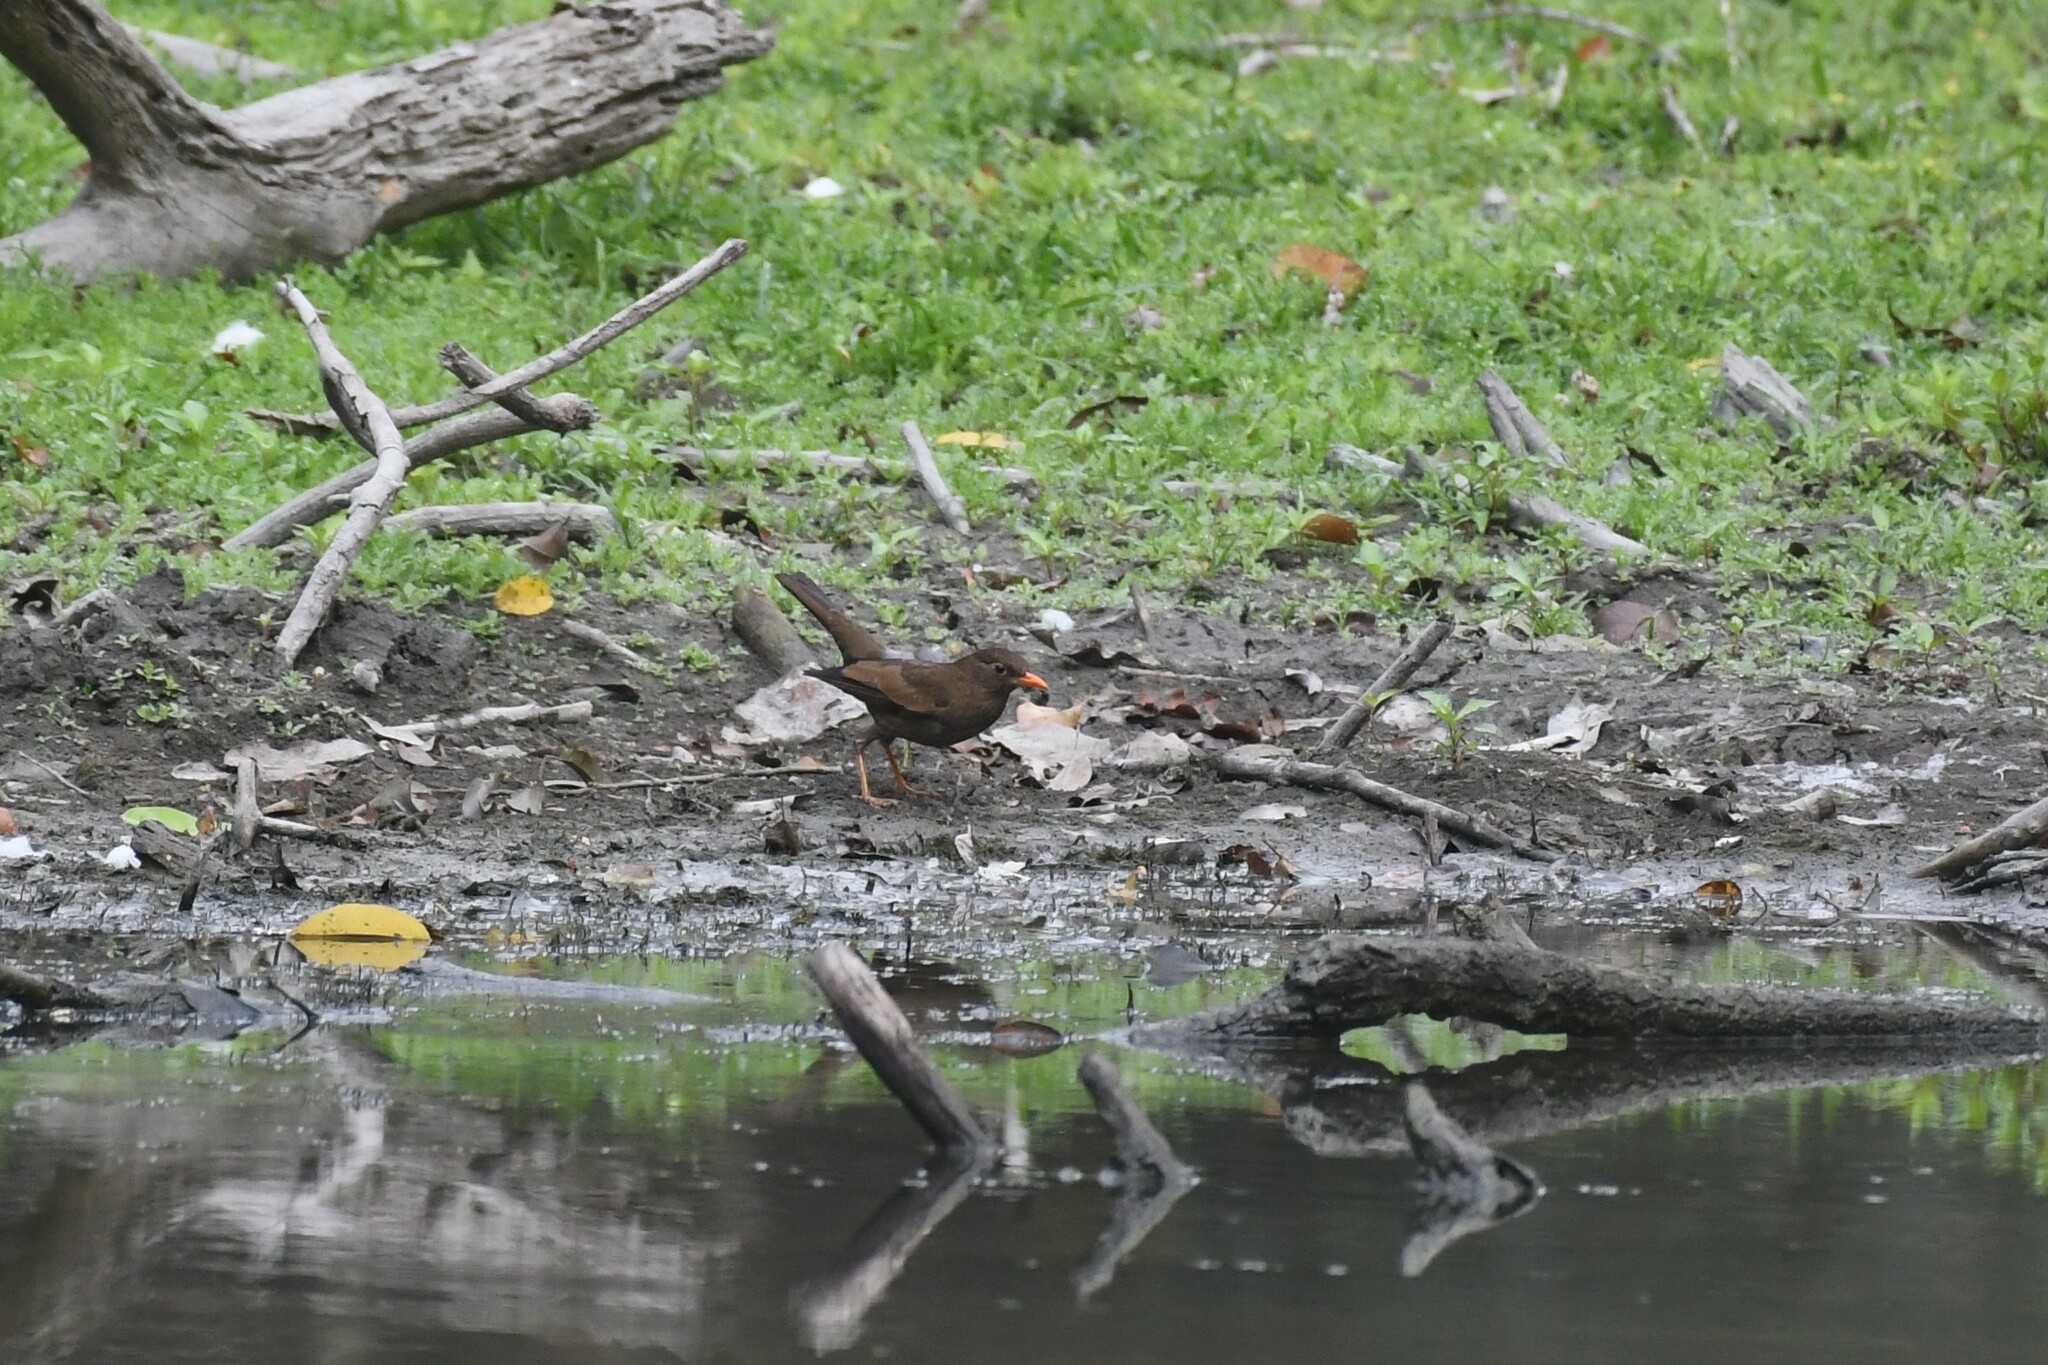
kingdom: Animalia
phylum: Chordata
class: Aves
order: Passeriformes
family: Turdidae
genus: Turdus
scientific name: Turdus boulboul
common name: Grey-winged blackbird
